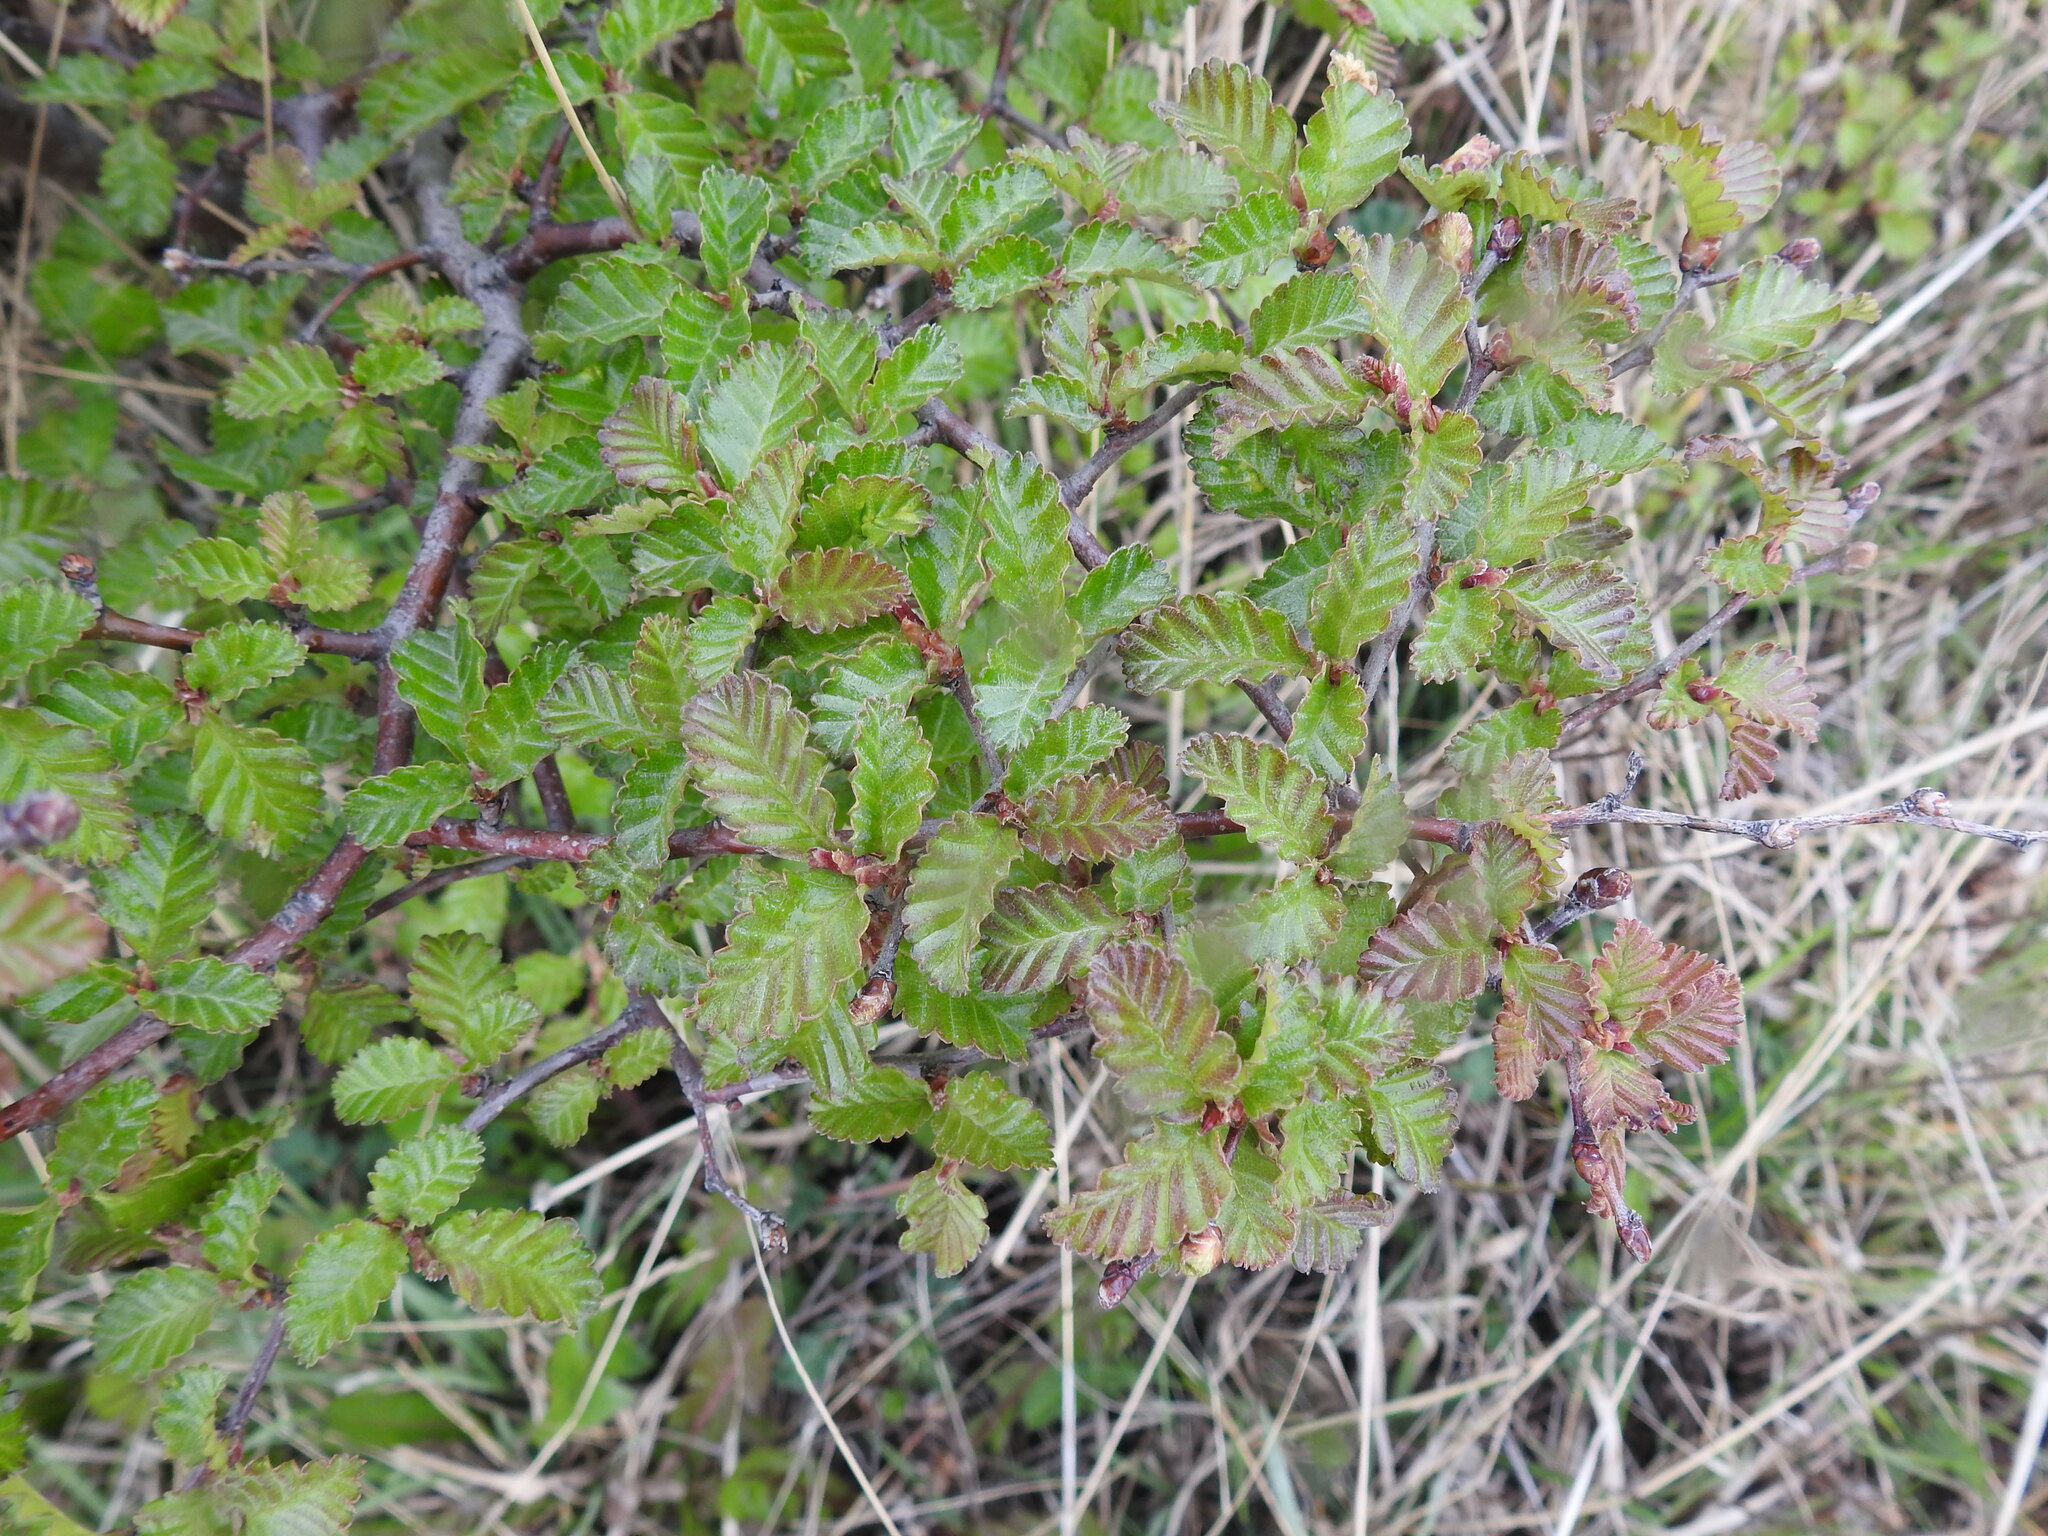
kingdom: Plantae
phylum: Tracheophyta
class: Magnoliopsida
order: Fagales
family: Nothofagaceae
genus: Nothofagus
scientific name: Nothofagus pumilio
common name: Lenga beech
